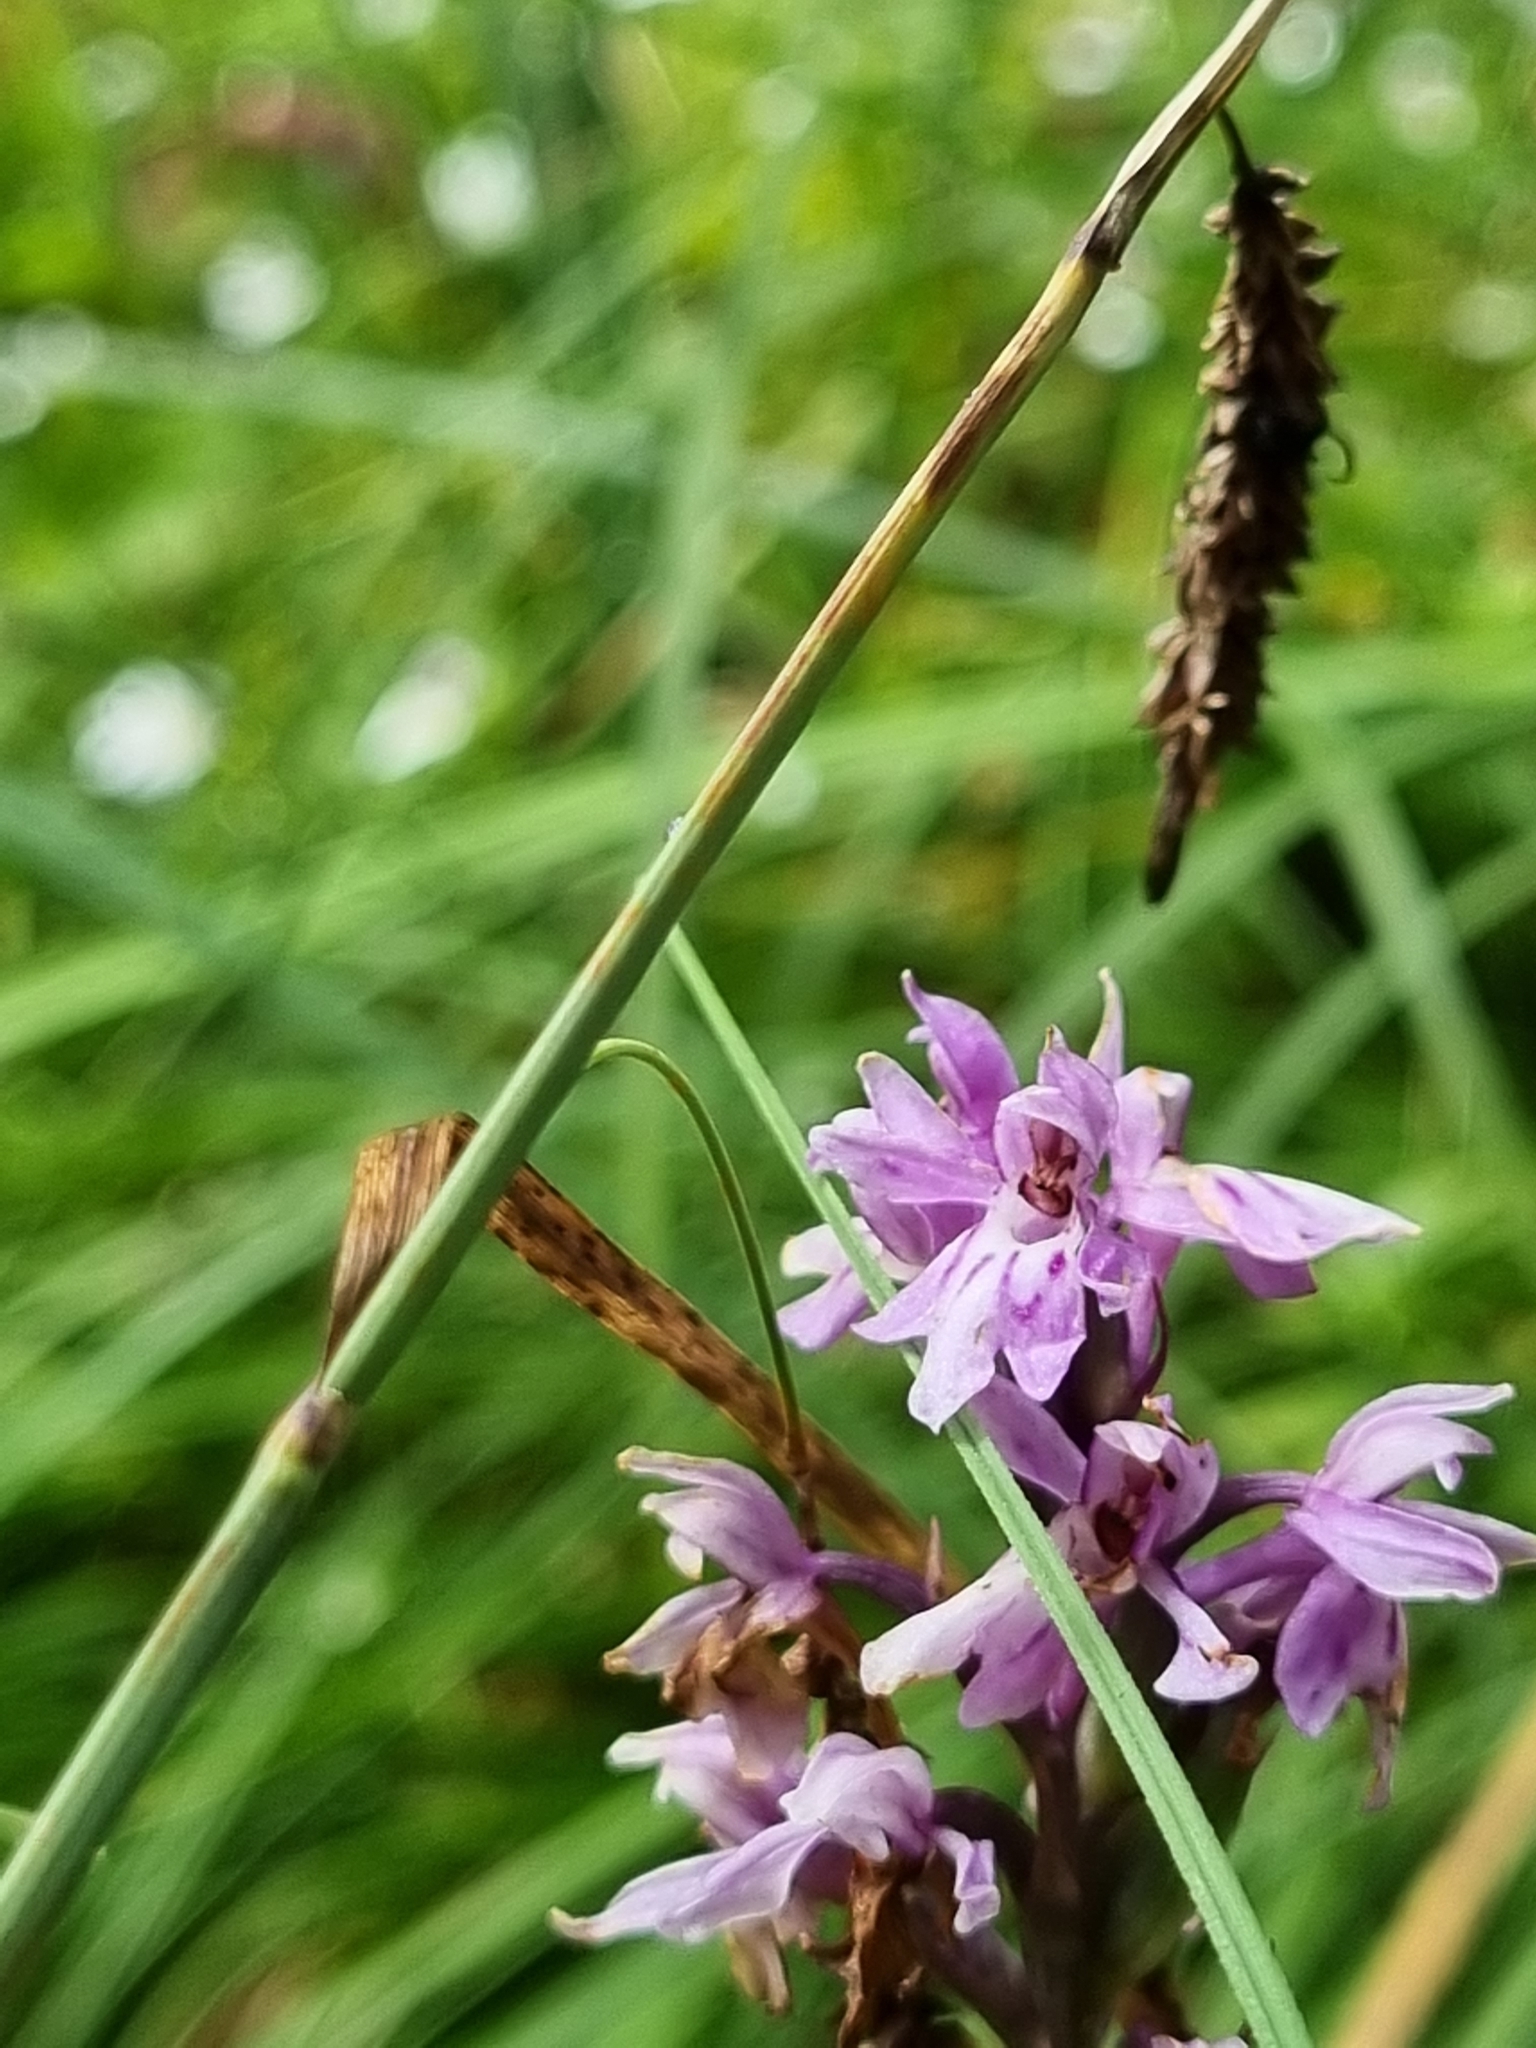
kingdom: Plantae
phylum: Tracheophyta
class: Liliopsida
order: Asparagales
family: Orchidaceae
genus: Dactylorhiza
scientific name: Dactylorhiza maculata
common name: Heath spotted-orchid
